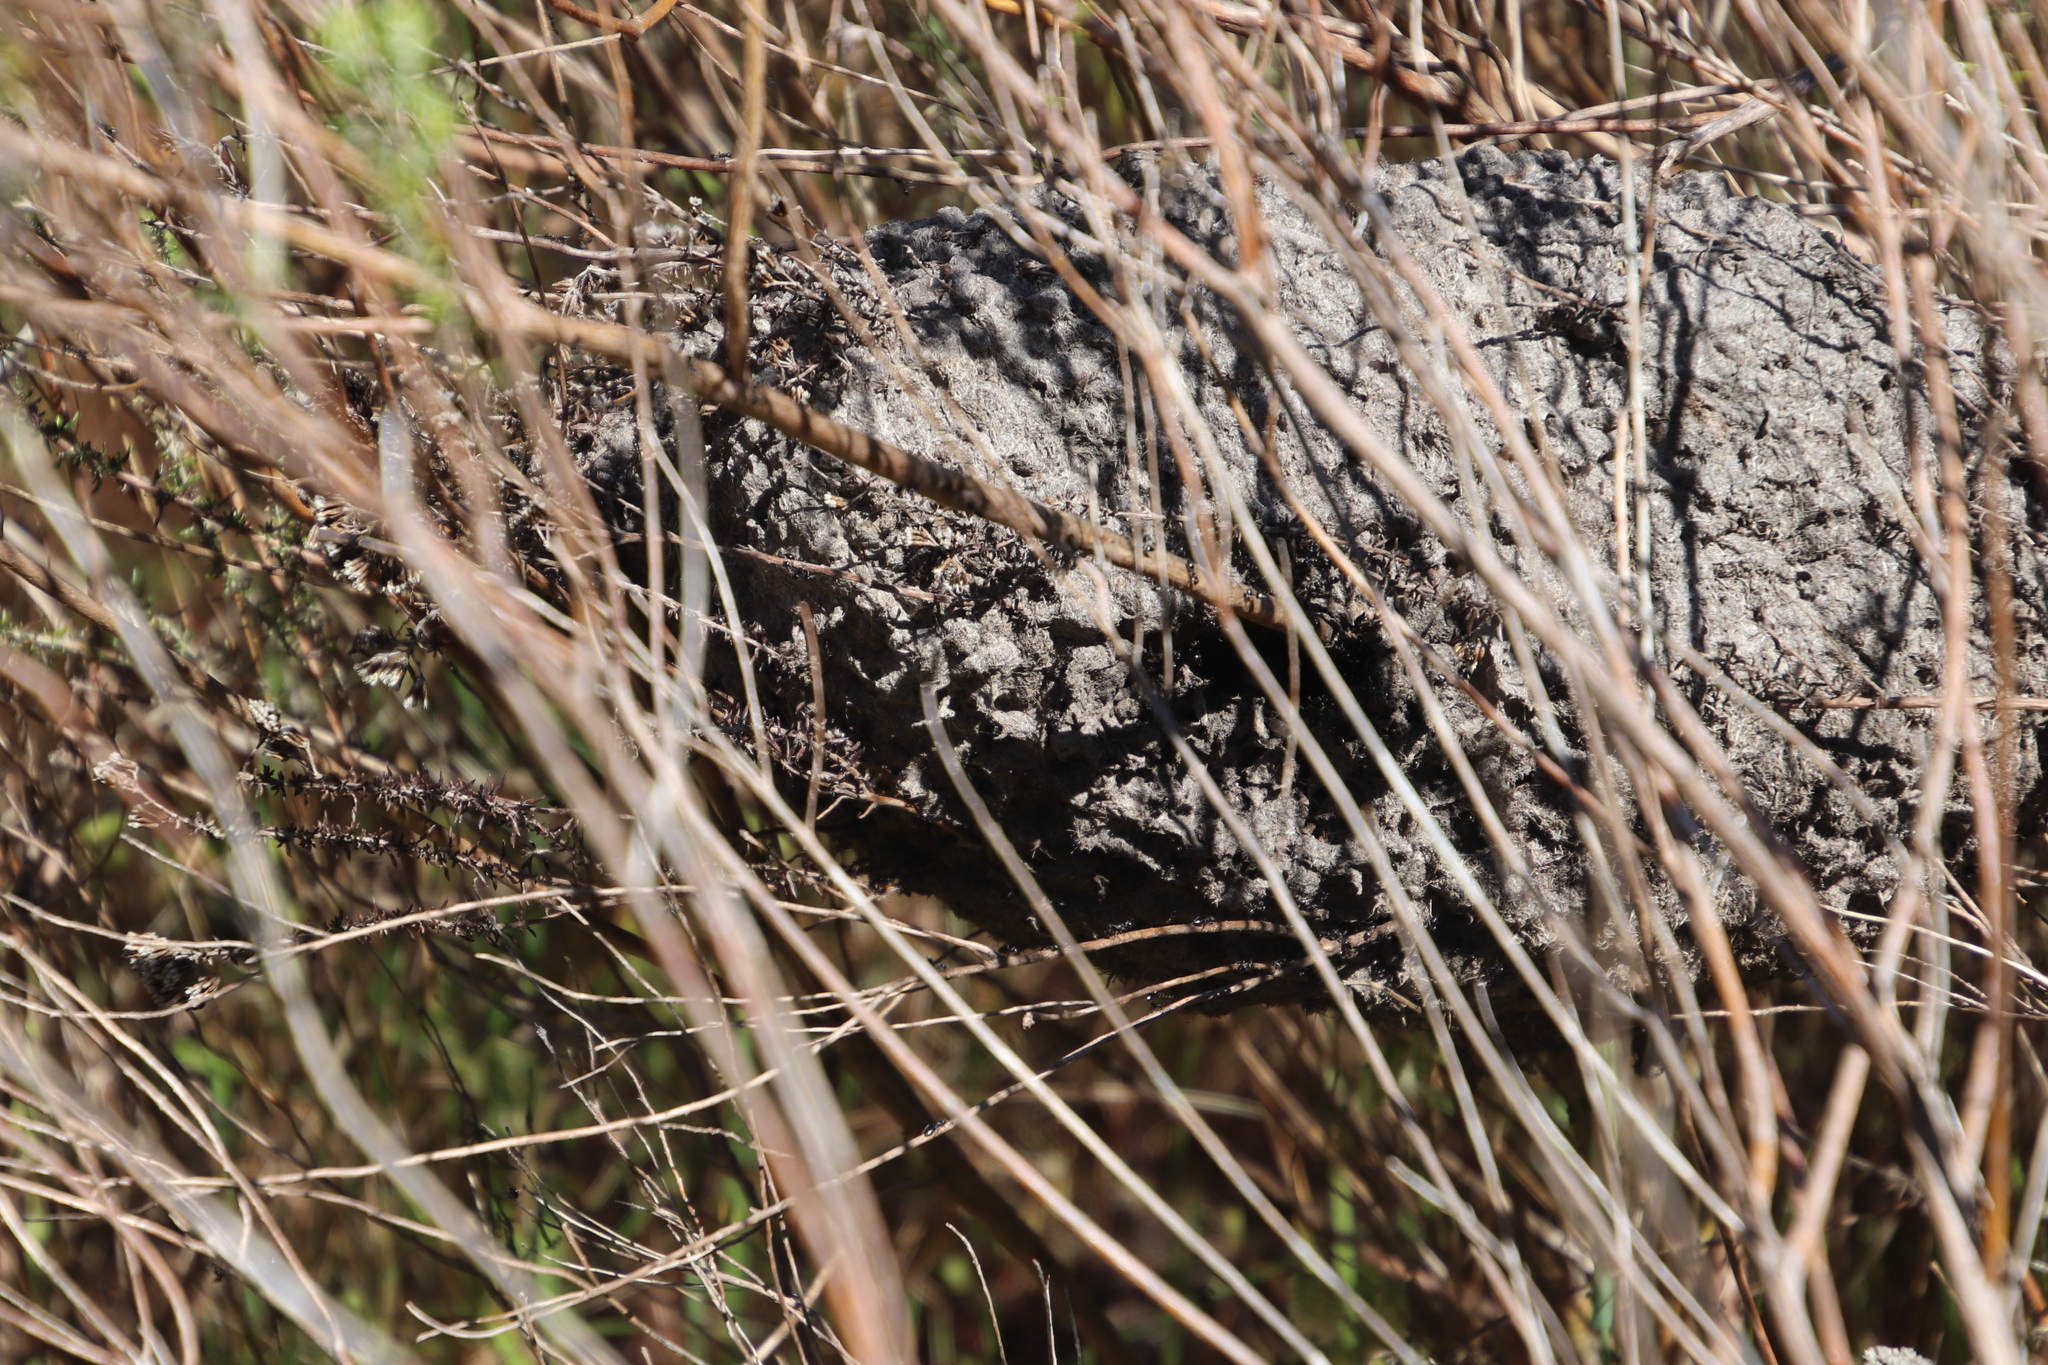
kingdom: Animalia
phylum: Arthropoda
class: Insecta
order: Hymenoptera
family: Formicidae
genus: Crematogaster
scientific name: Crematogaster peringueyi
